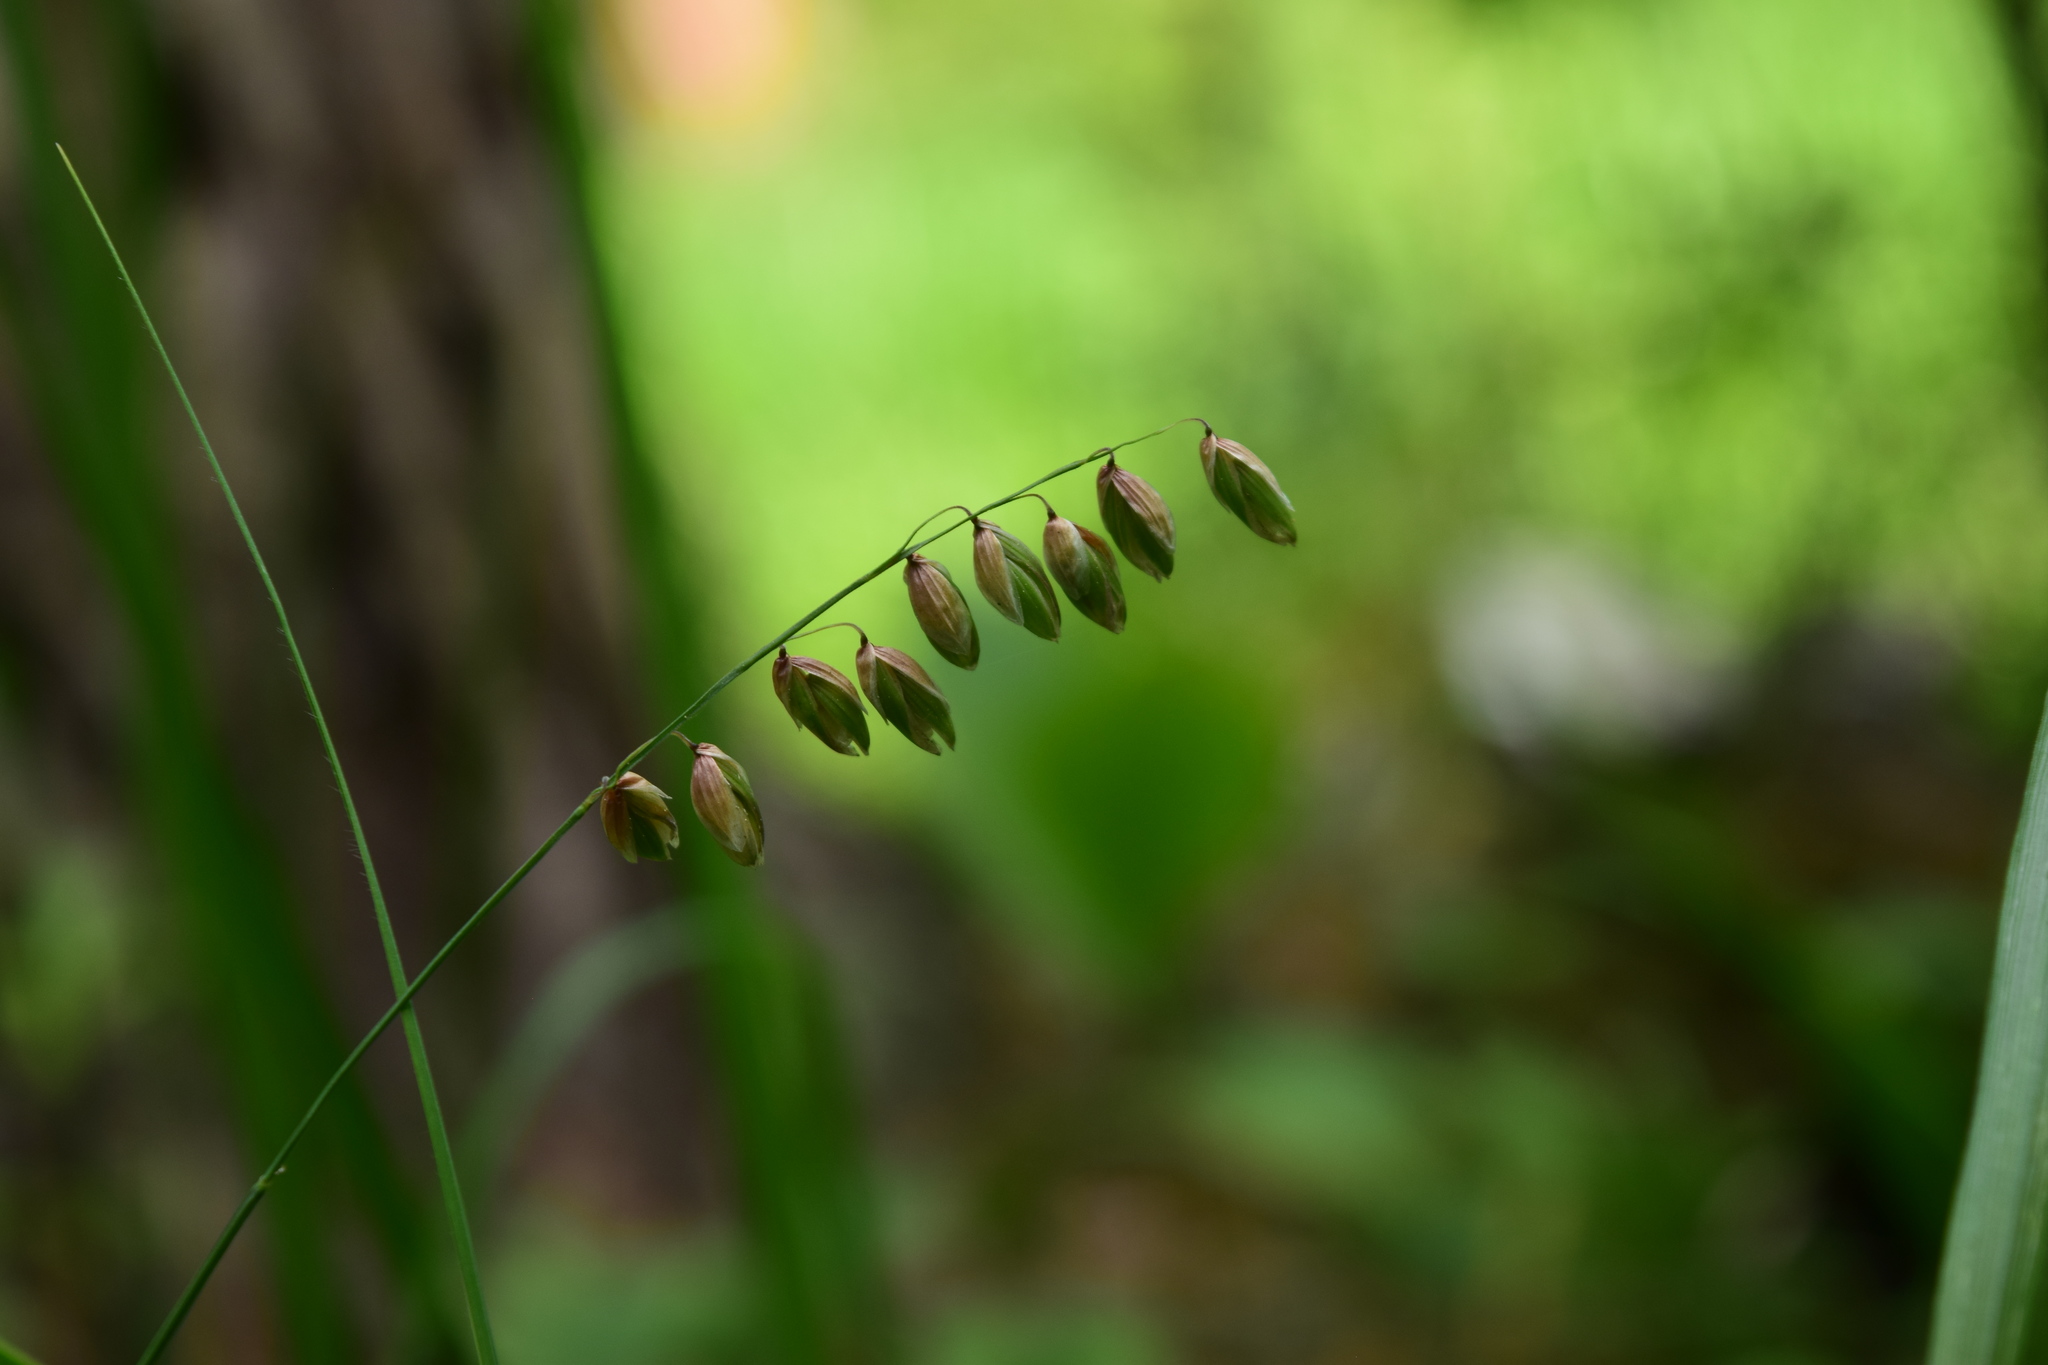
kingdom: Plantae
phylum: Tracheophyta
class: Liliopsida
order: Poales
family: Poaceae
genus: Melica
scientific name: Melica nutans
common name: Mountain melick
